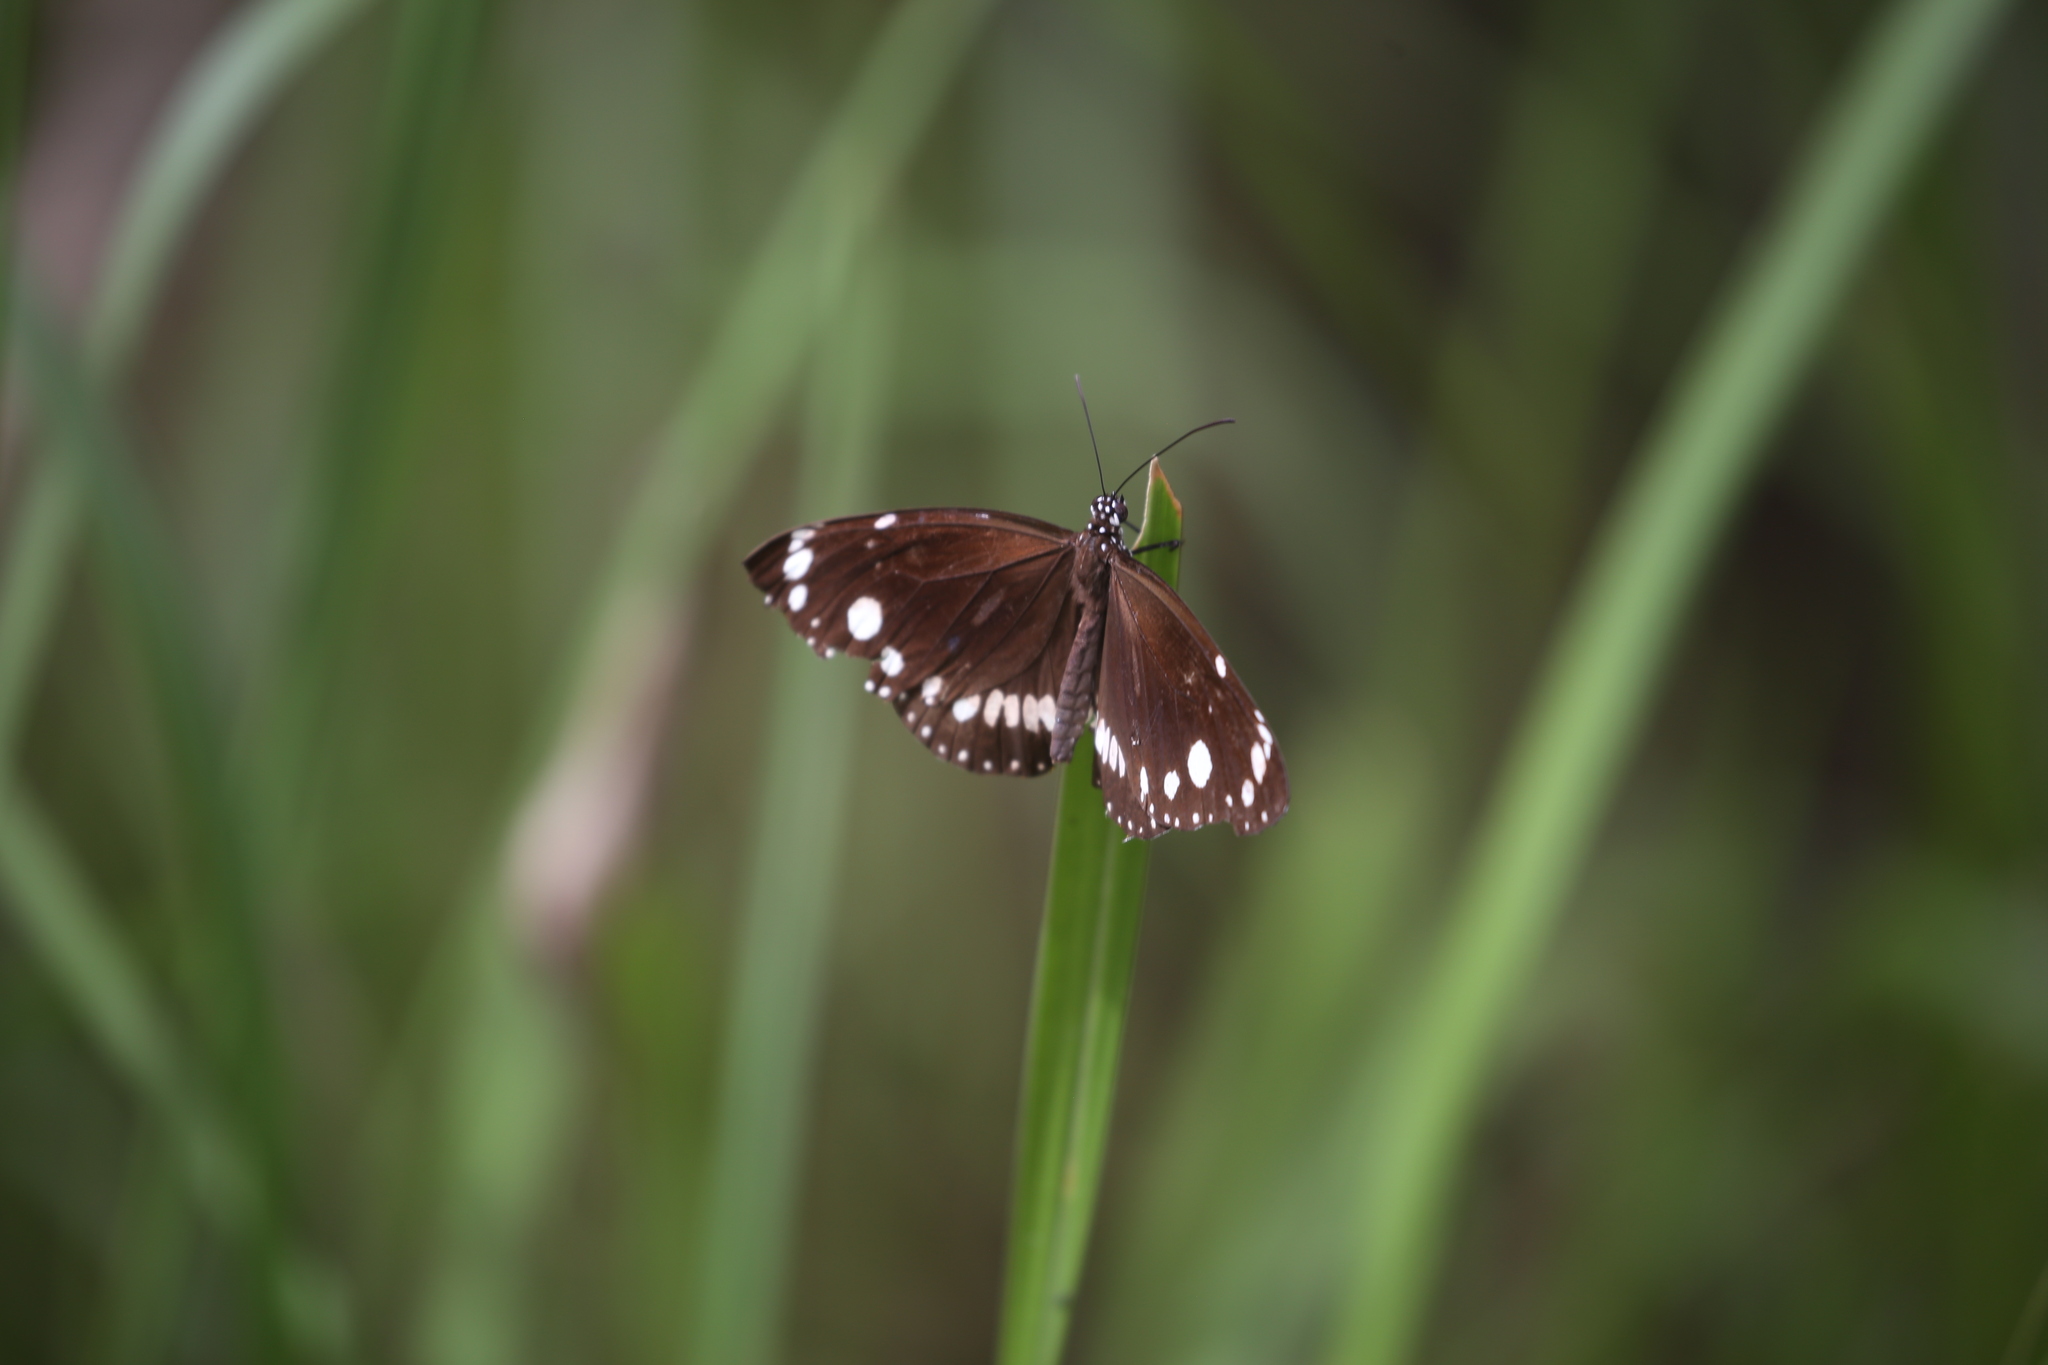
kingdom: Animalia
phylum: Arthropoda
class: Insecta
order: Lepidoptera
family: Nymphalidae
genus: Euploea
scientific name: Euploea core
